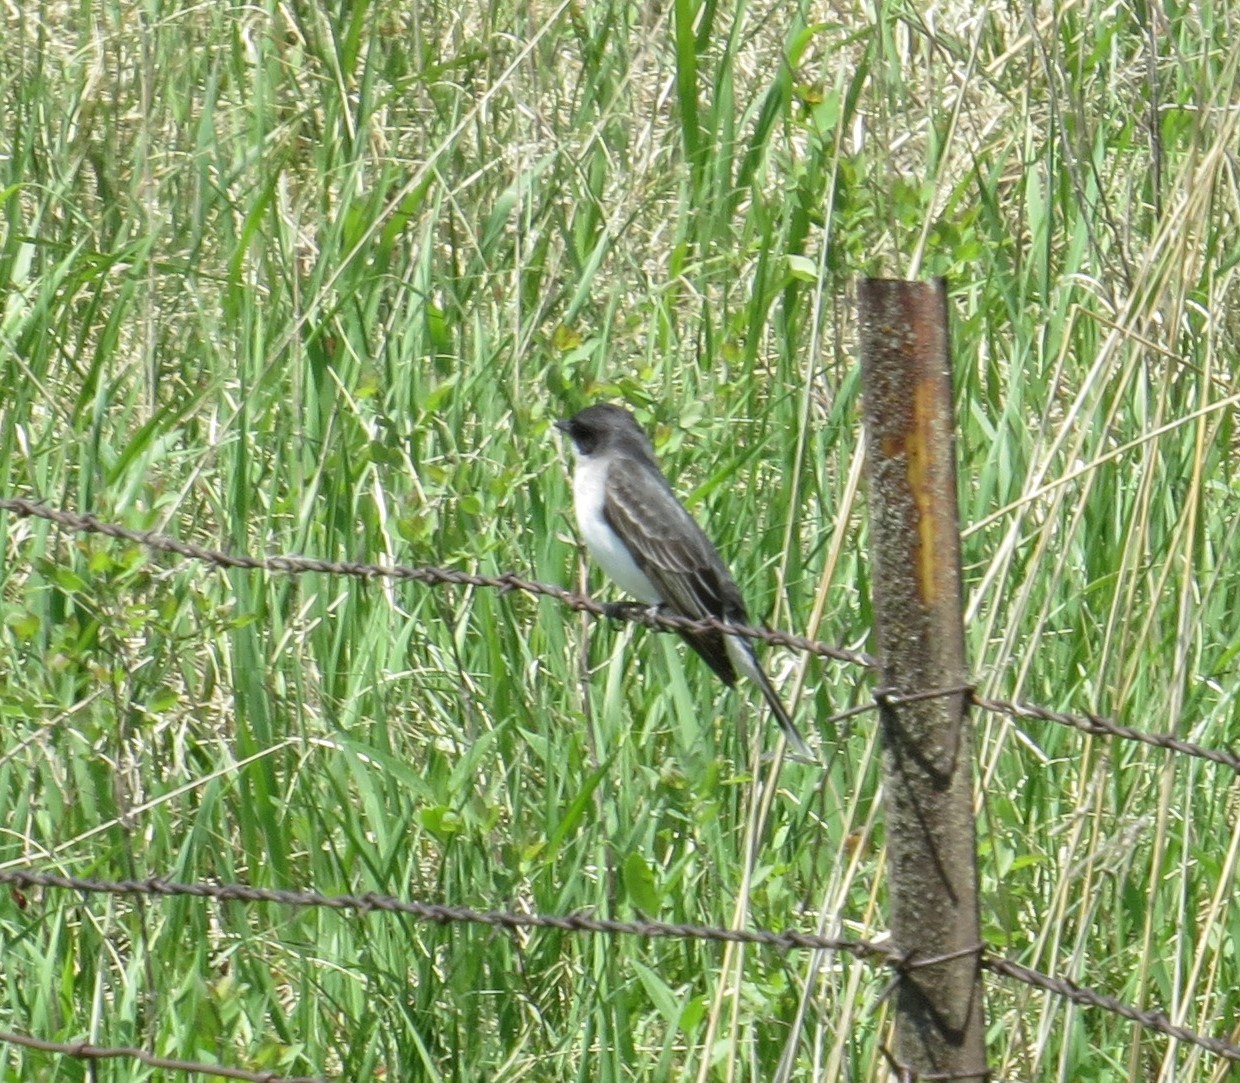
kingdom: Animalia
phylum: Chordata
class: Aves
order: Passeriformes
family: Tyrannidae
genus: Tyrannus
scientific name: Tyrannus tyrannus
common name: Eastern kingbird
